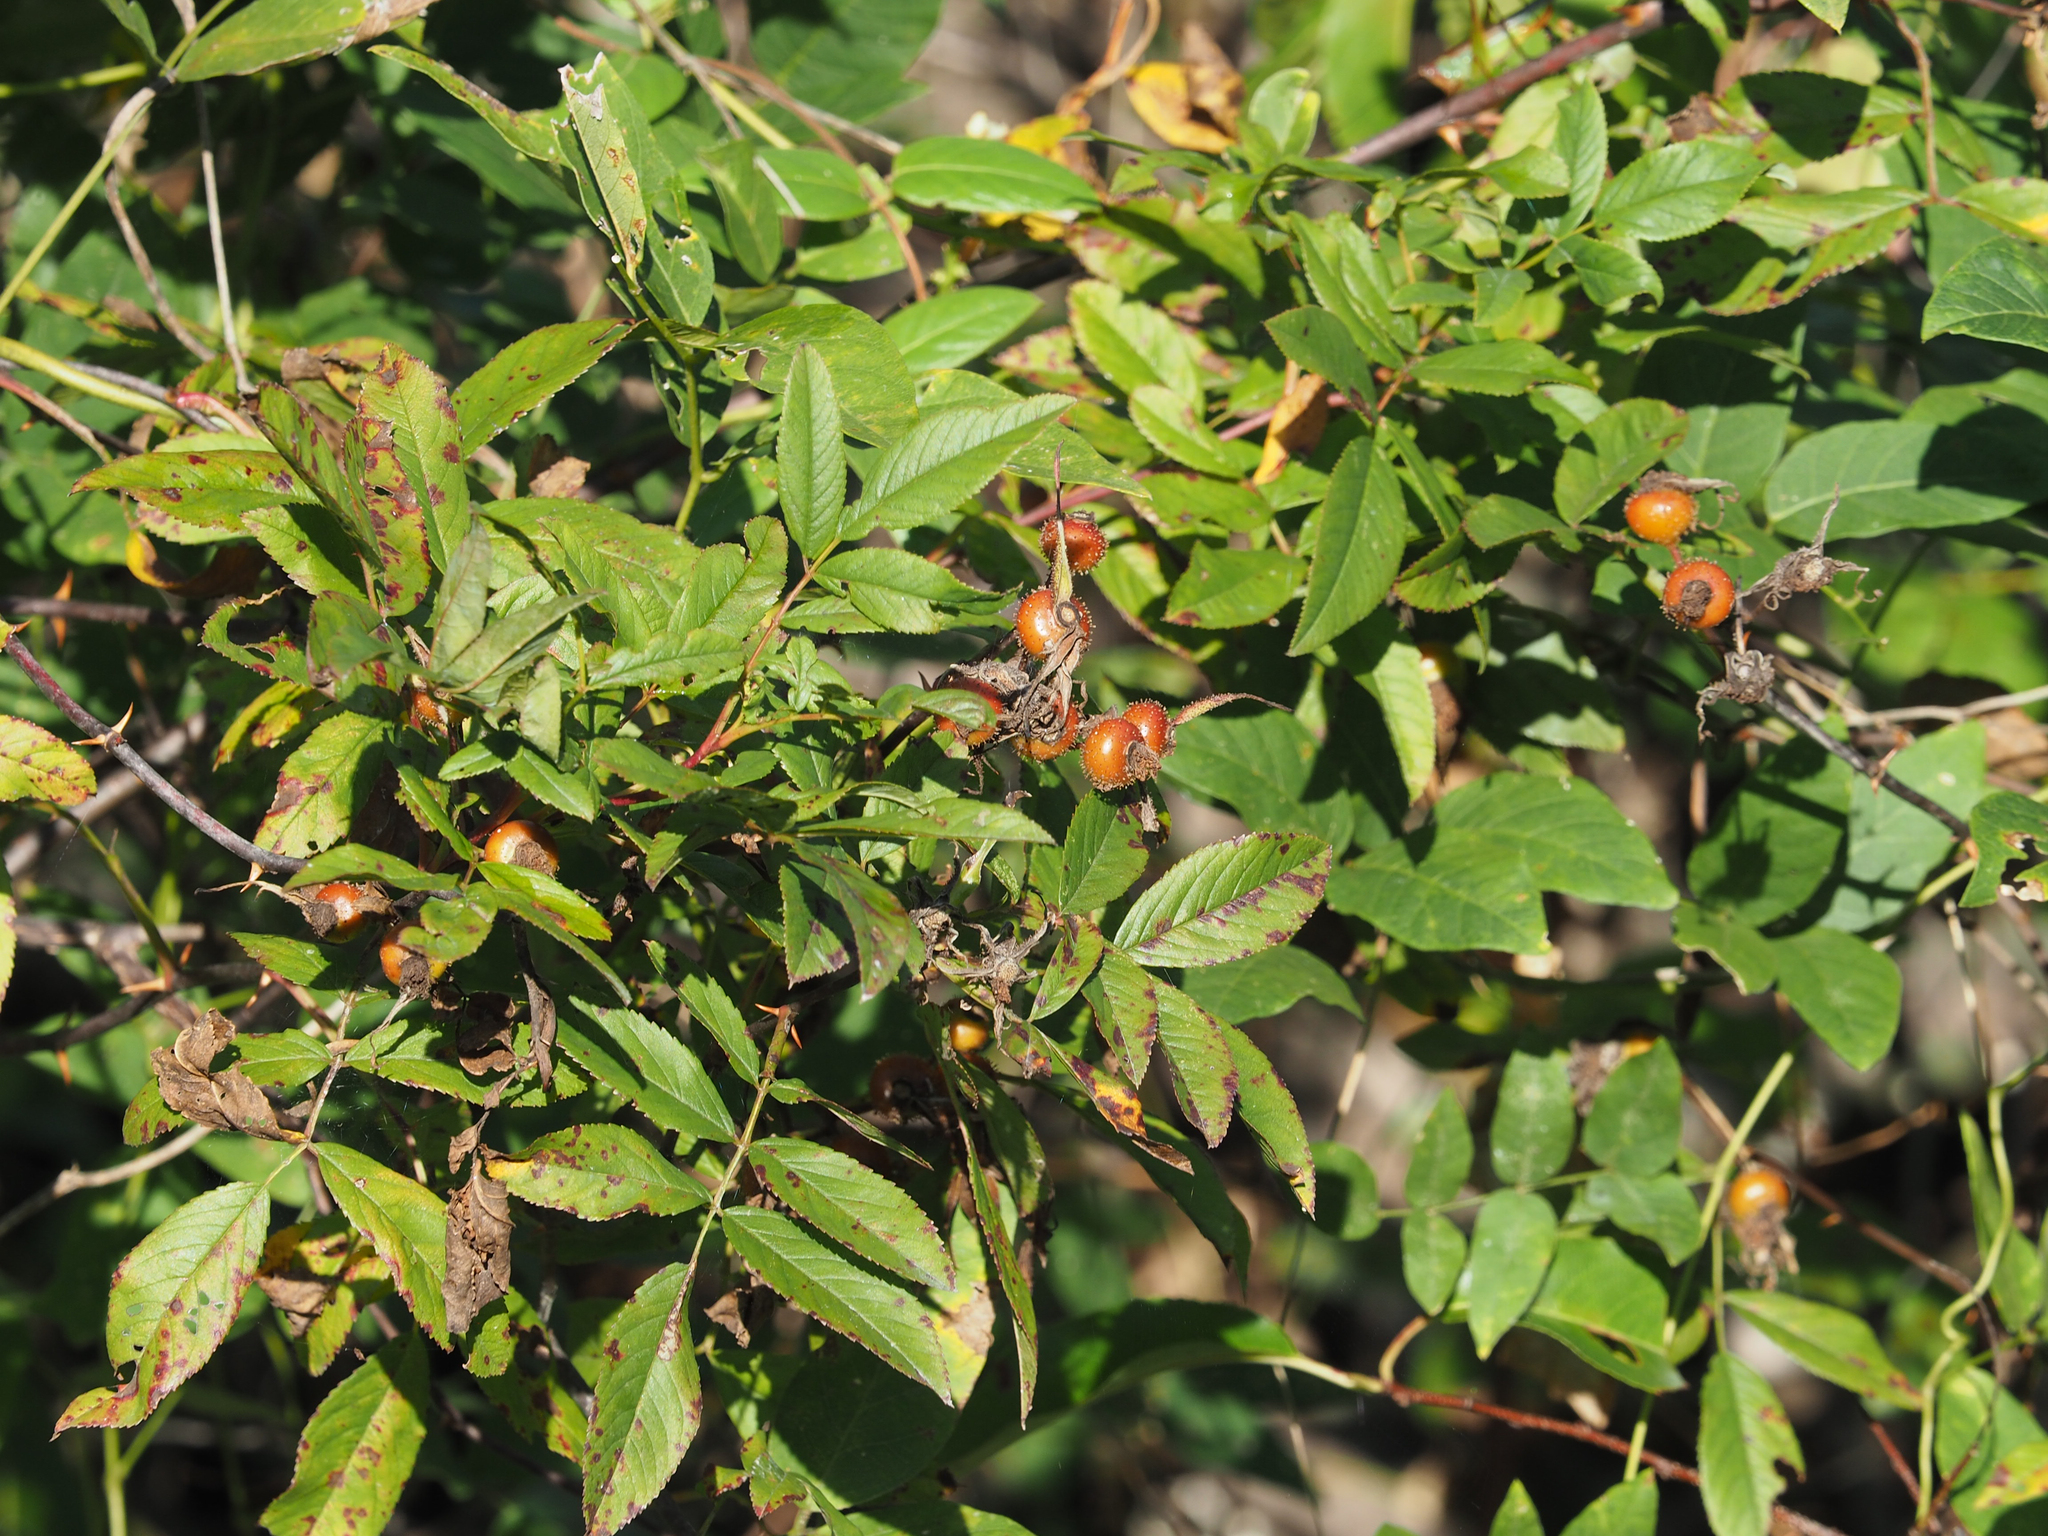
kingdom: Plantae
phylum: Tracheophyta
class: Magnoliopsida
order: Rosales
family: Rosaceae
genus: Rosa
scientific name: Rosa palustris
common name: Swamp rose
